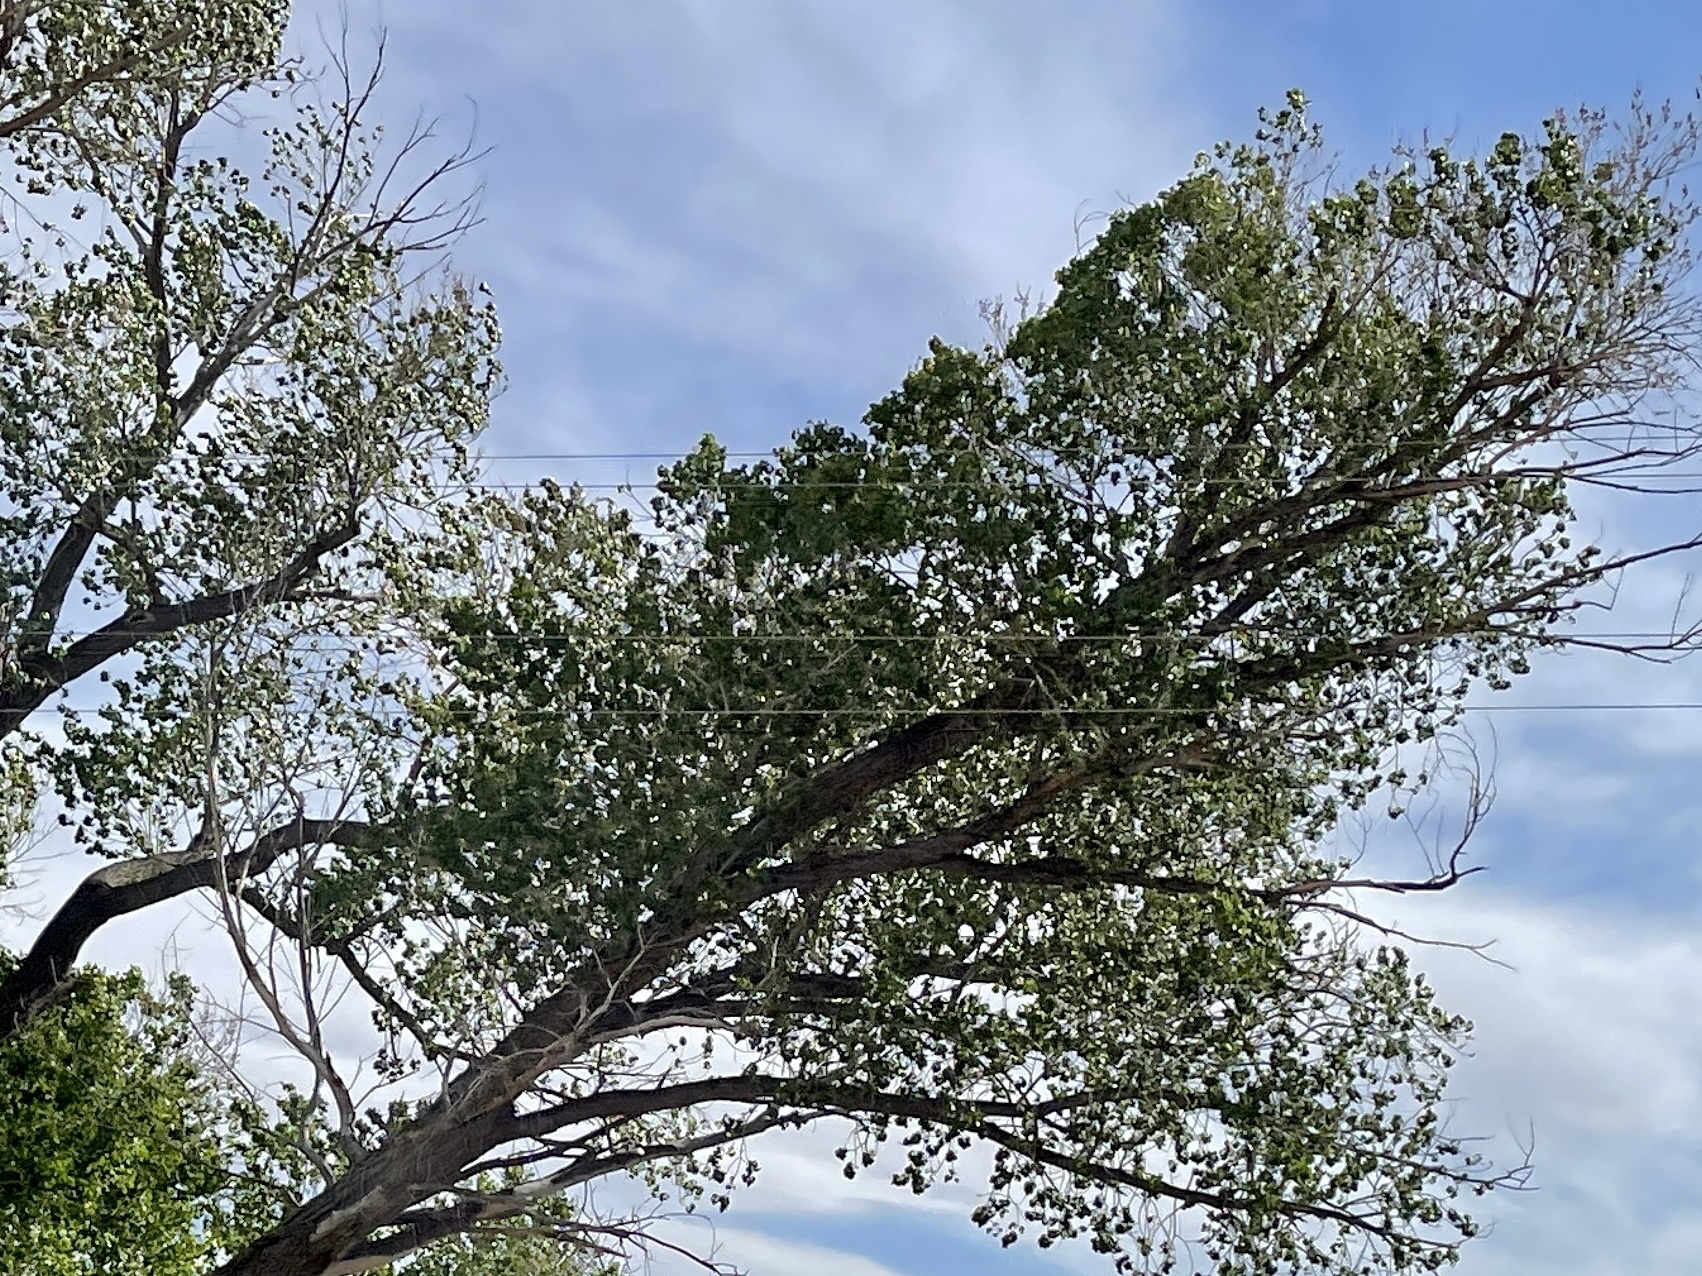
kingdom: Plantae
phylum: Tracheophyta
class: Magnoliopsida
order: Malpighiales
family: Salicaceae
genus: Populus
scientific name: Populus fremontii
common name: Fremont's cottonwood
